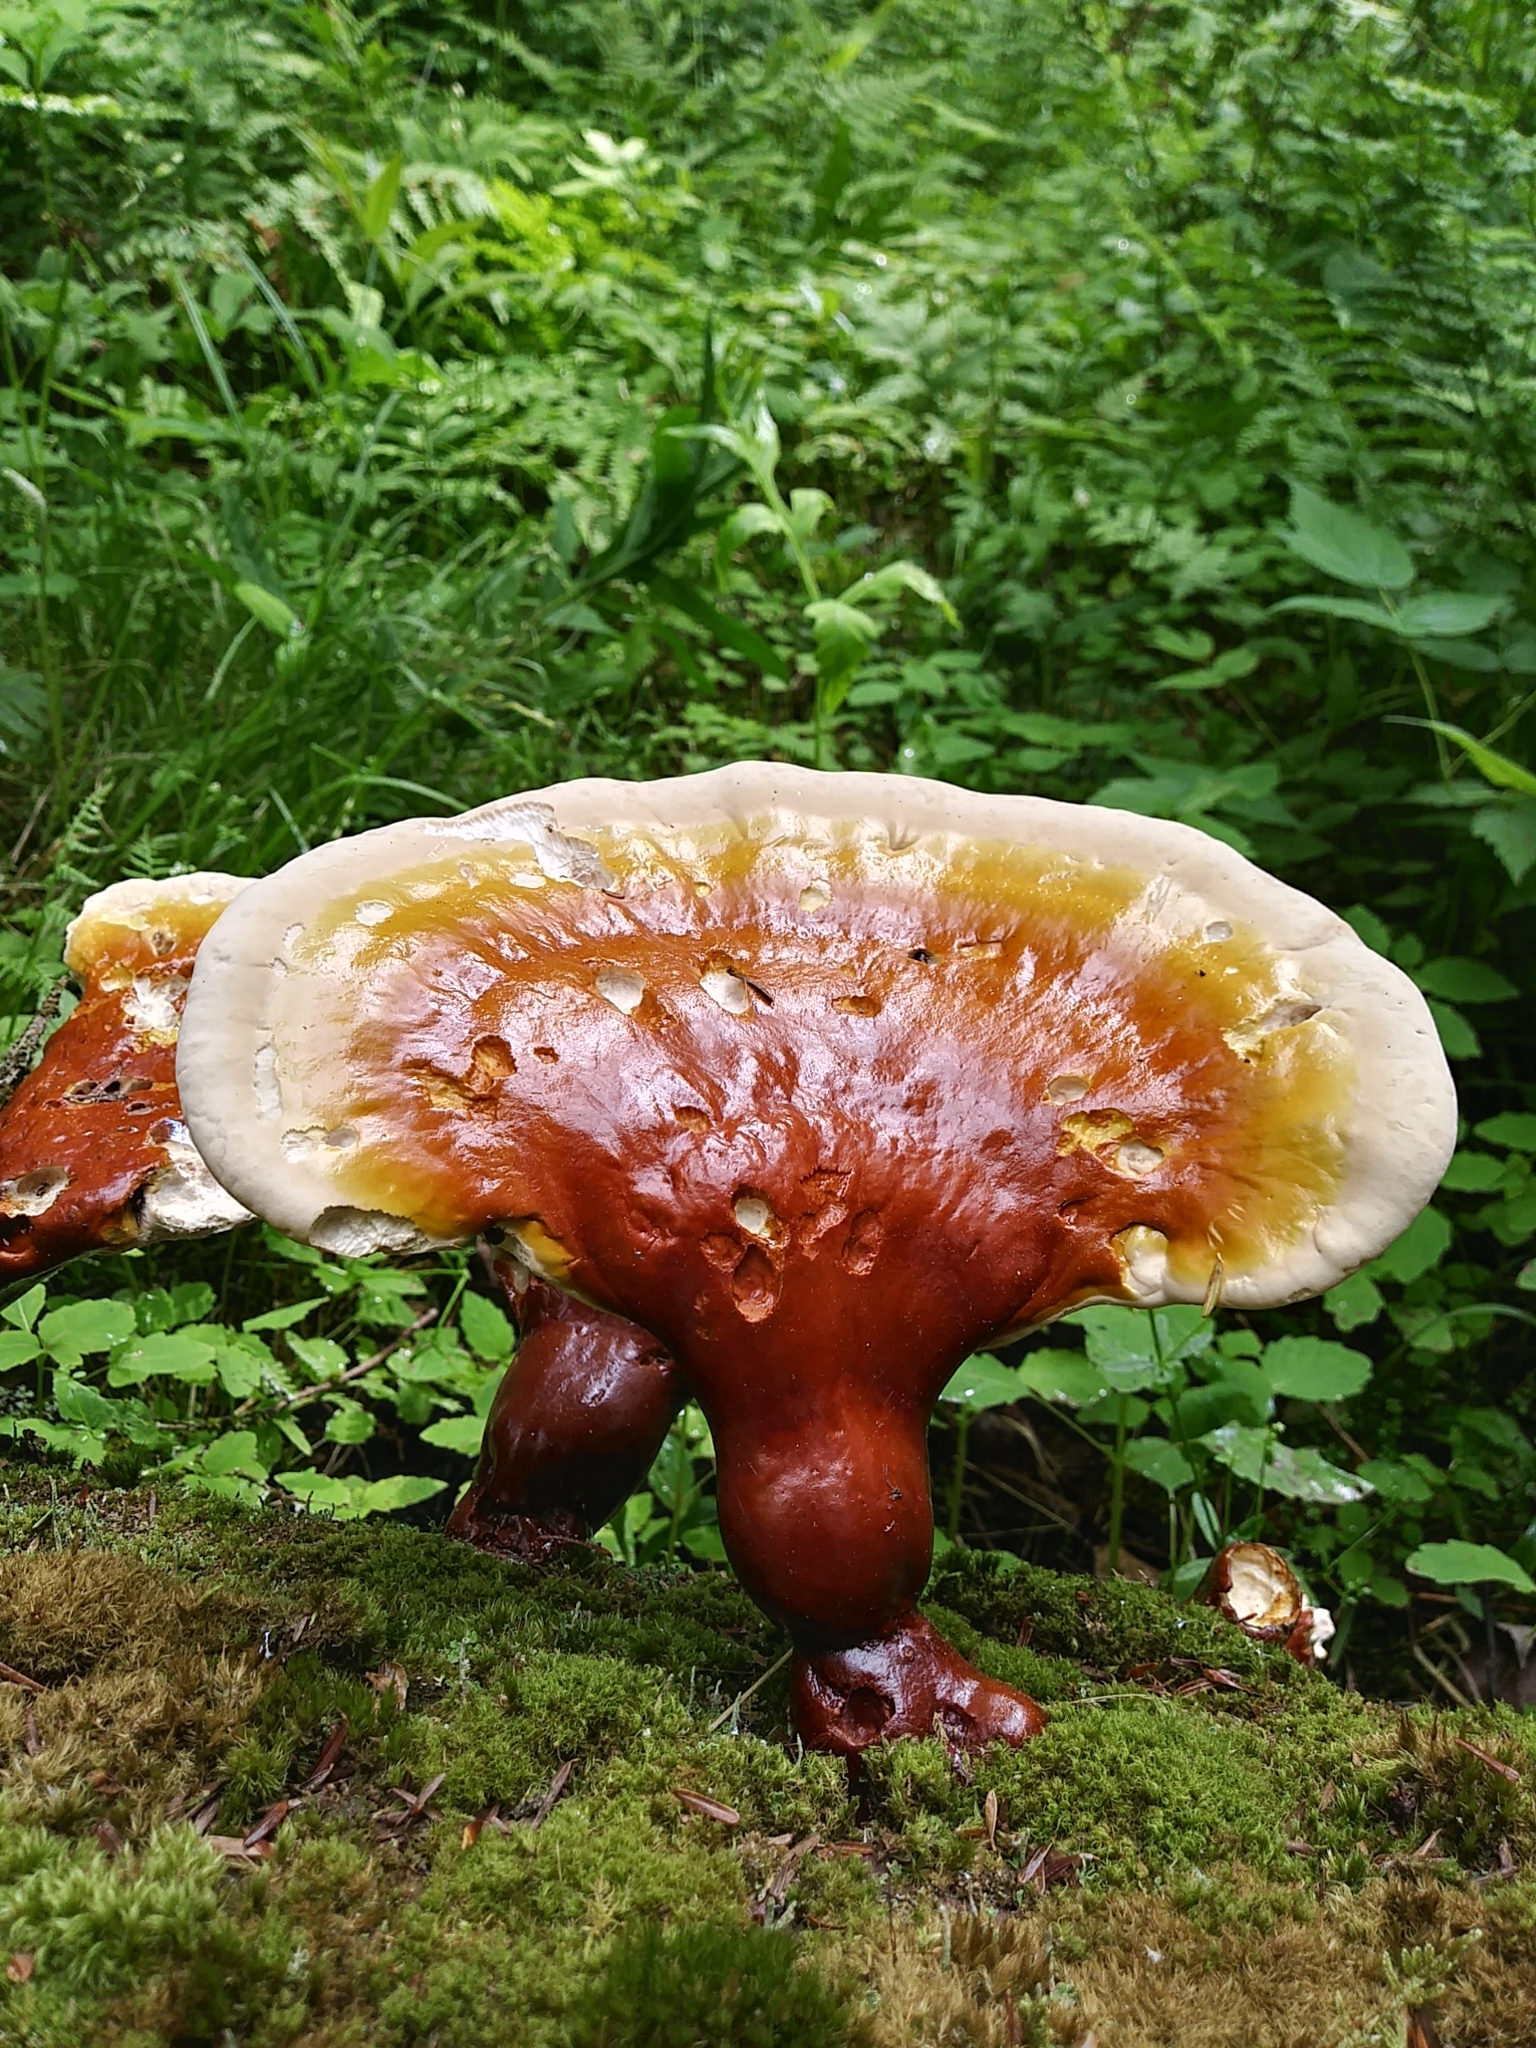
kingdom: Fungi
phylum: Basidiomycota
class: Agaricomycetes
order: Polyporales
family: Polyporaceae
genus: Ganoderma
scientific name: Ganoderma tsugae
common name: Hemlock varnish shelf
